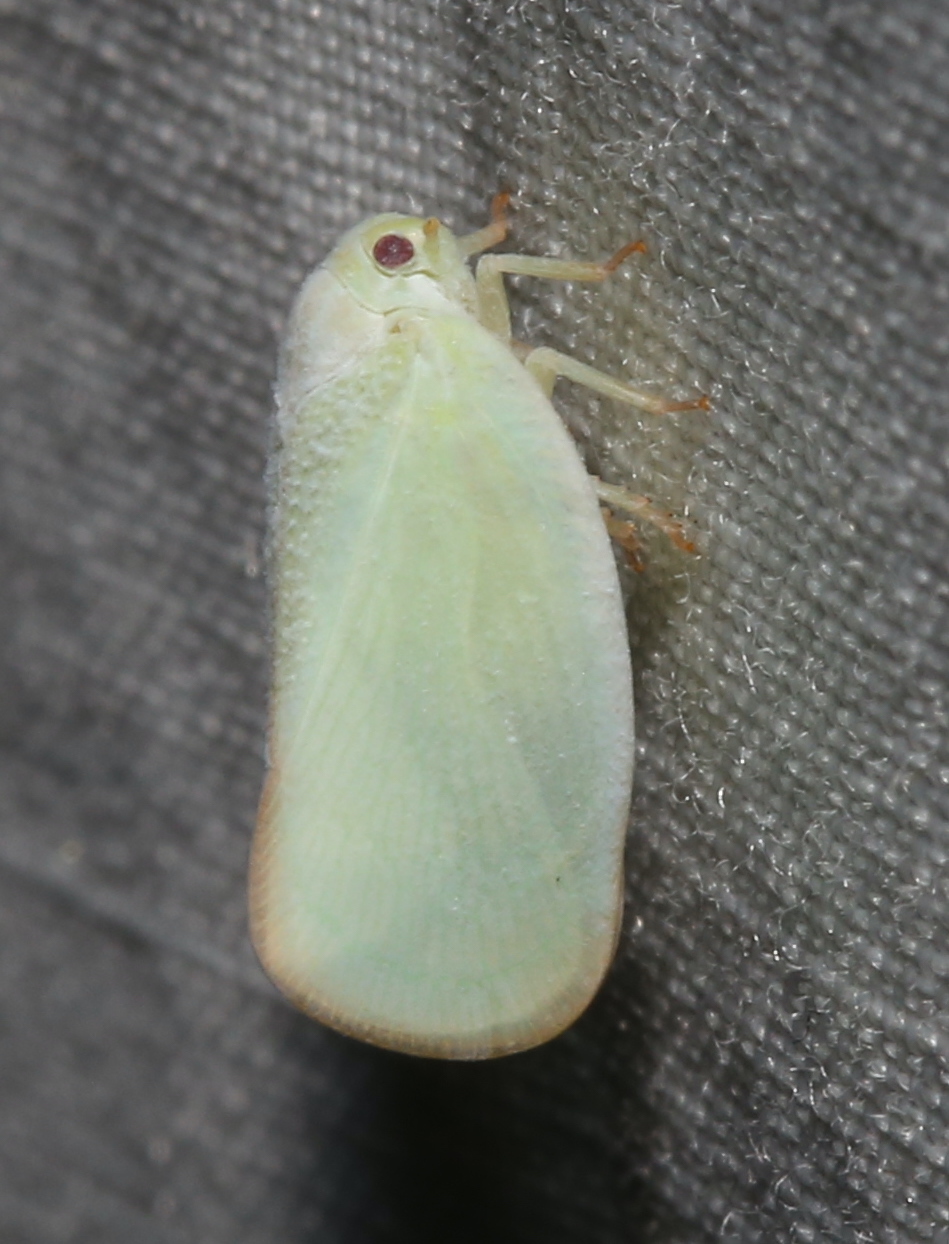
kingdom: Animalia
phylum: Arthropoda
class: Insecta
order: Hemiptera
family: Flatidae
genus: Ormenoides
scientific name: Ormenoides venusta
